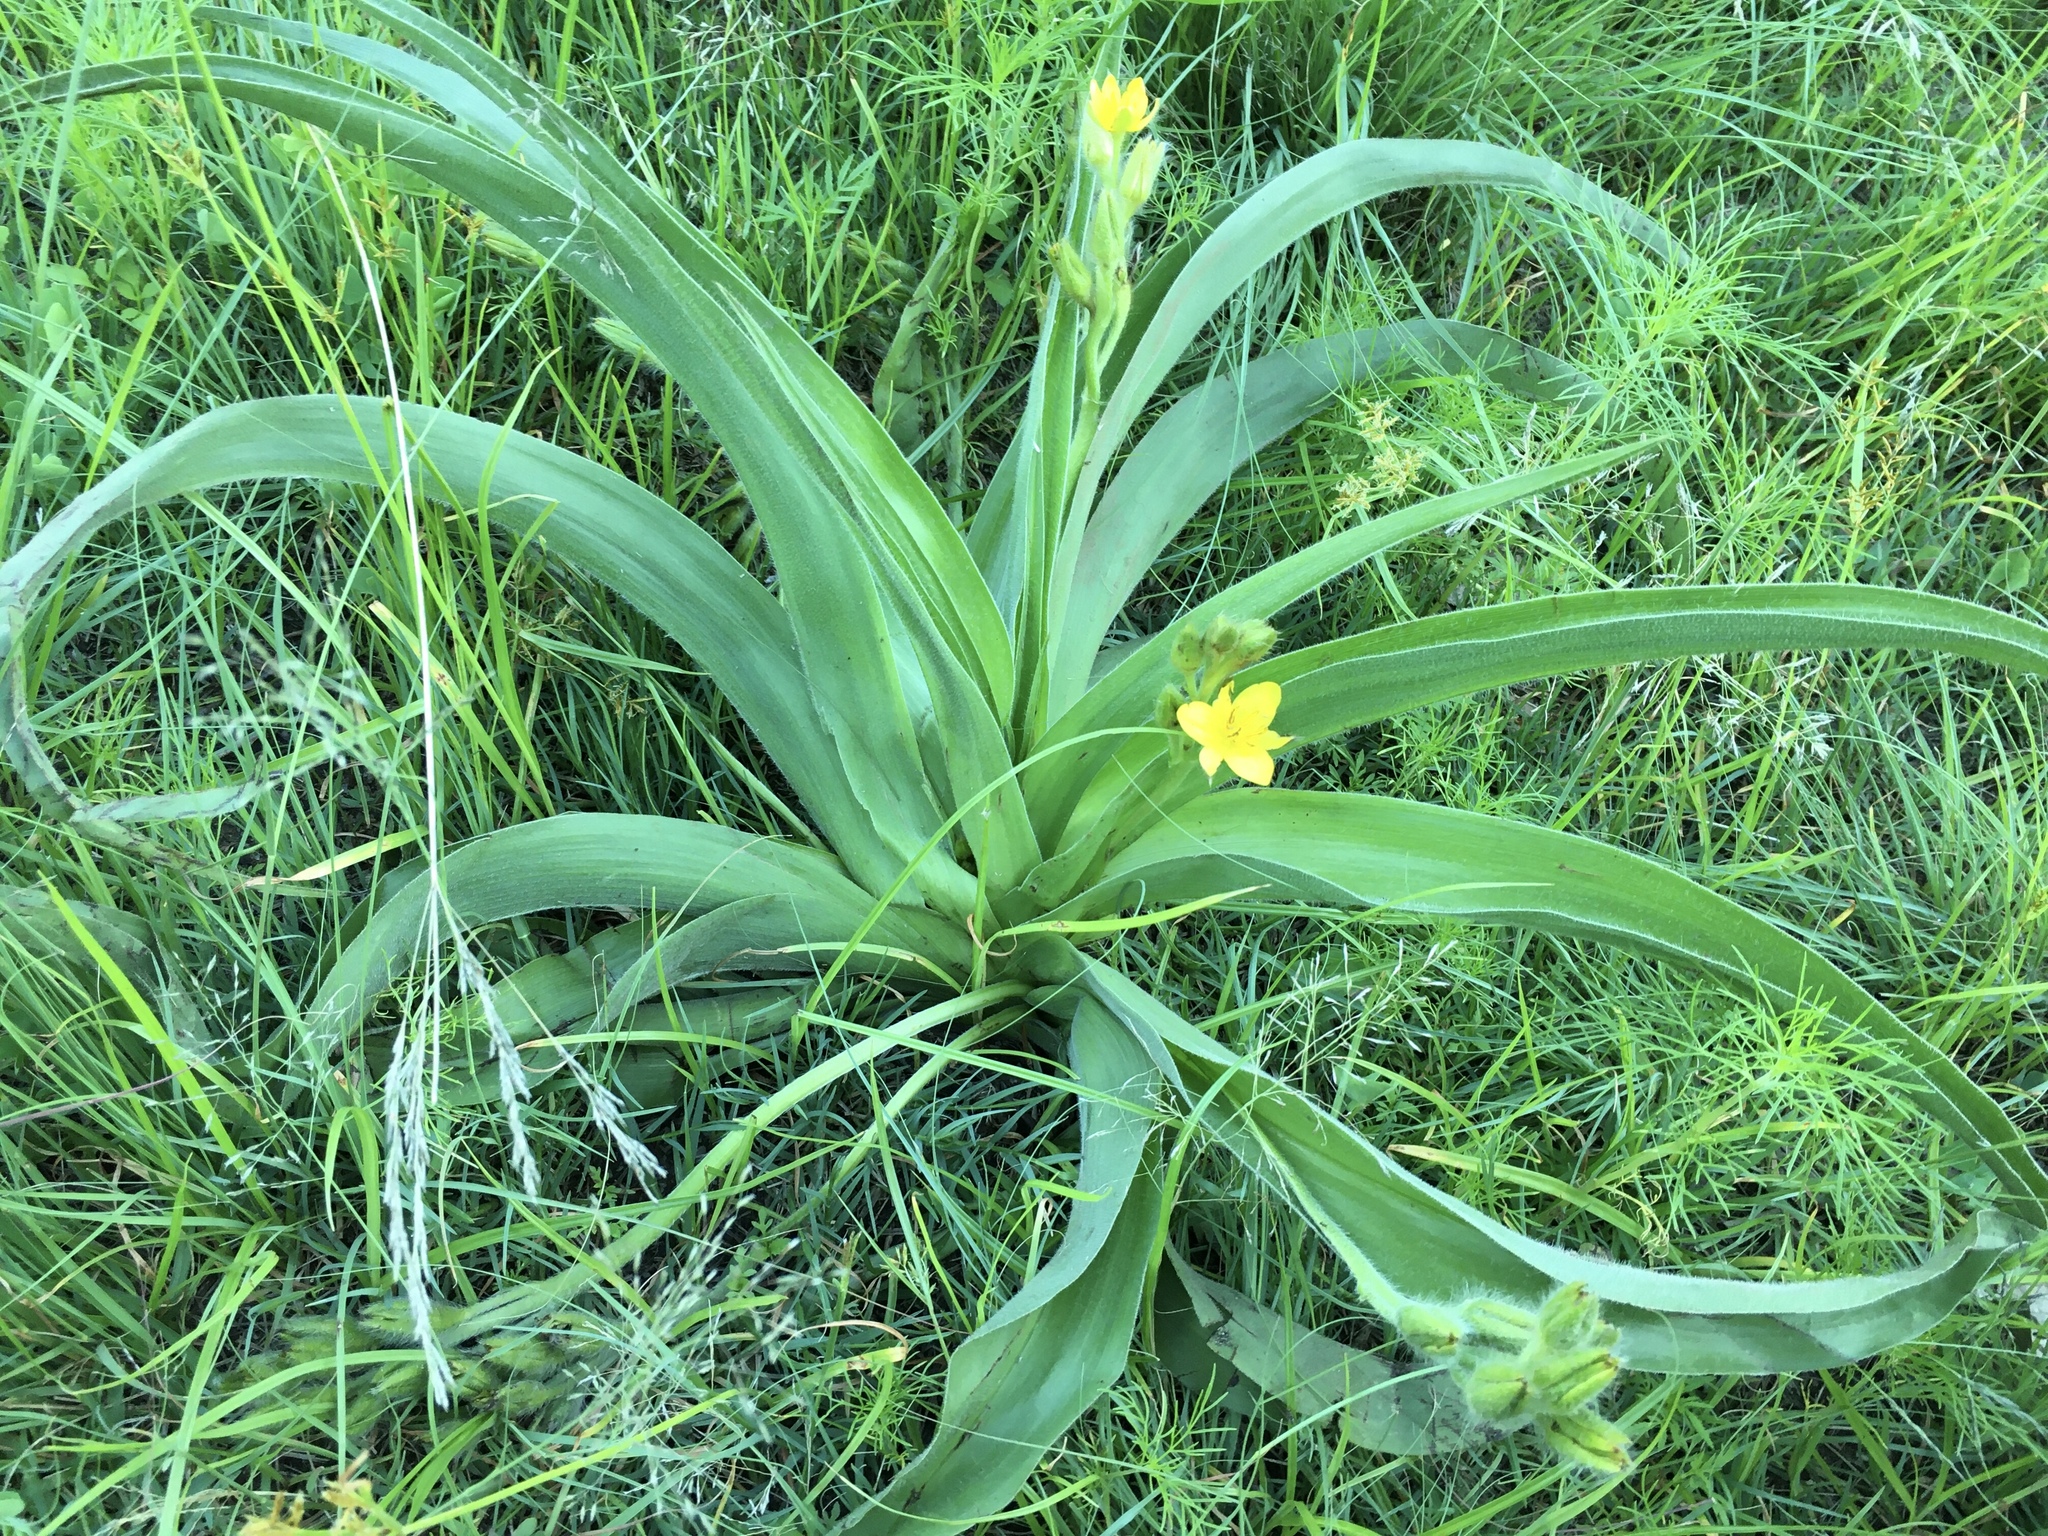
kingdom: Plantae
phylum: Tracheophyta
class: Liliopsida
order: Asparagales
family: Hypoxidaceae
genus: Hypoxis
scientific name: Hypoxis hemerocallidea
